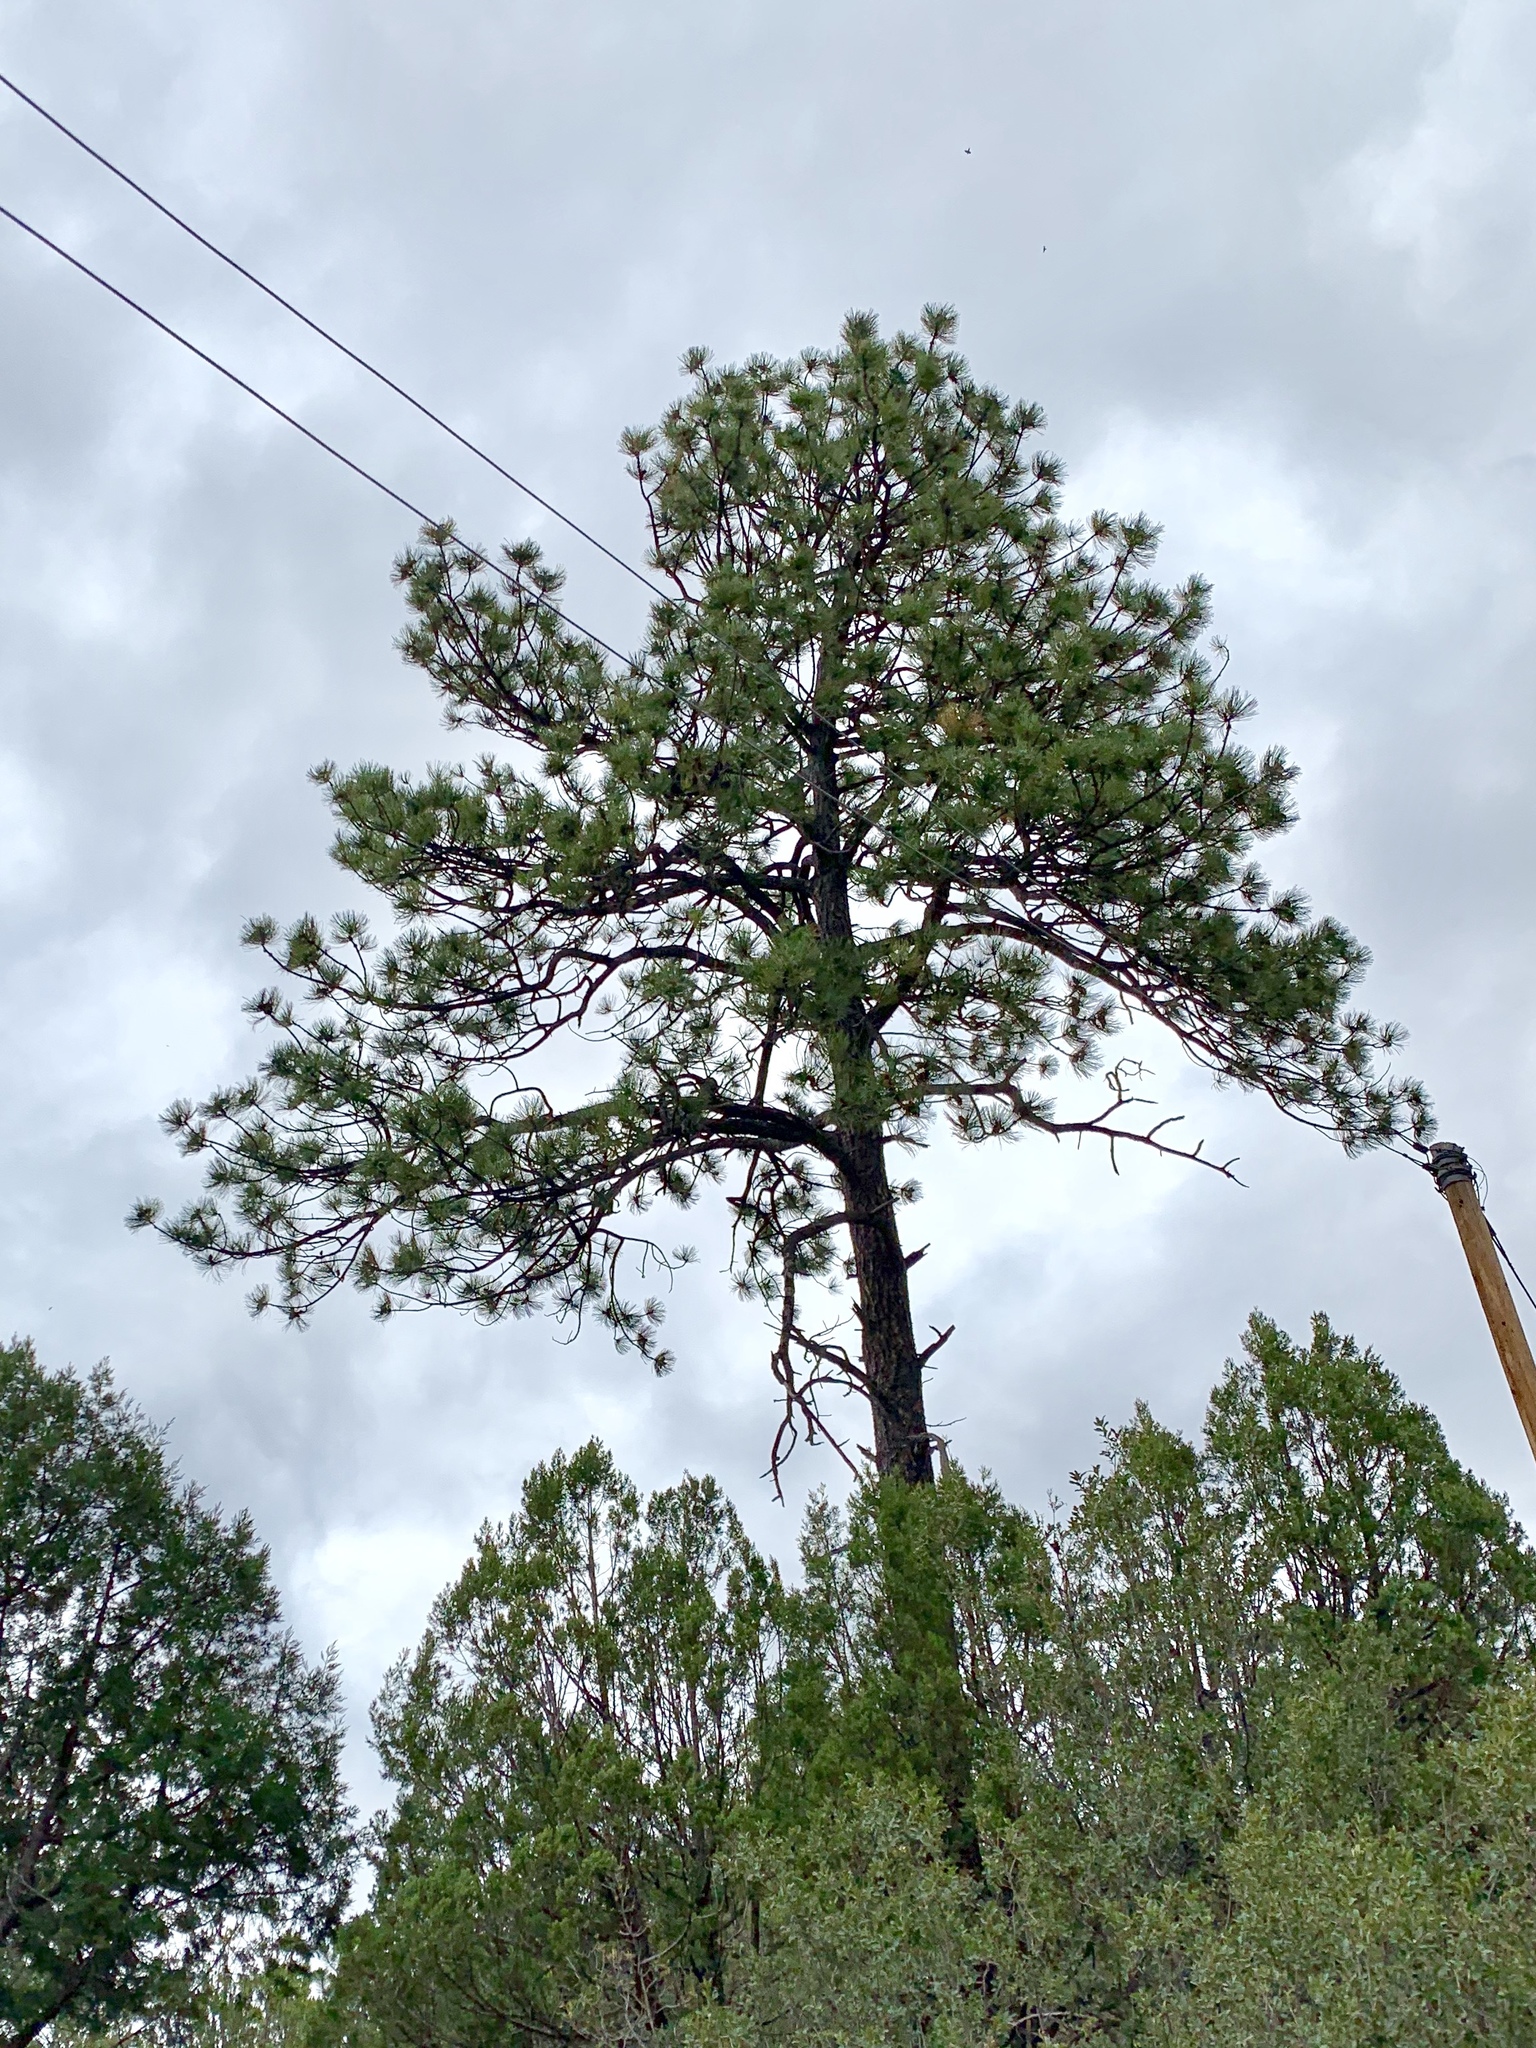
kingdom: Plantae
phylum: Tracheophyta
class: Pinopsida
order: Pinales
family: Pinaceae
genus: Pinus
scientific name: Pinus ponderosa
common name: Western yellow-pine
